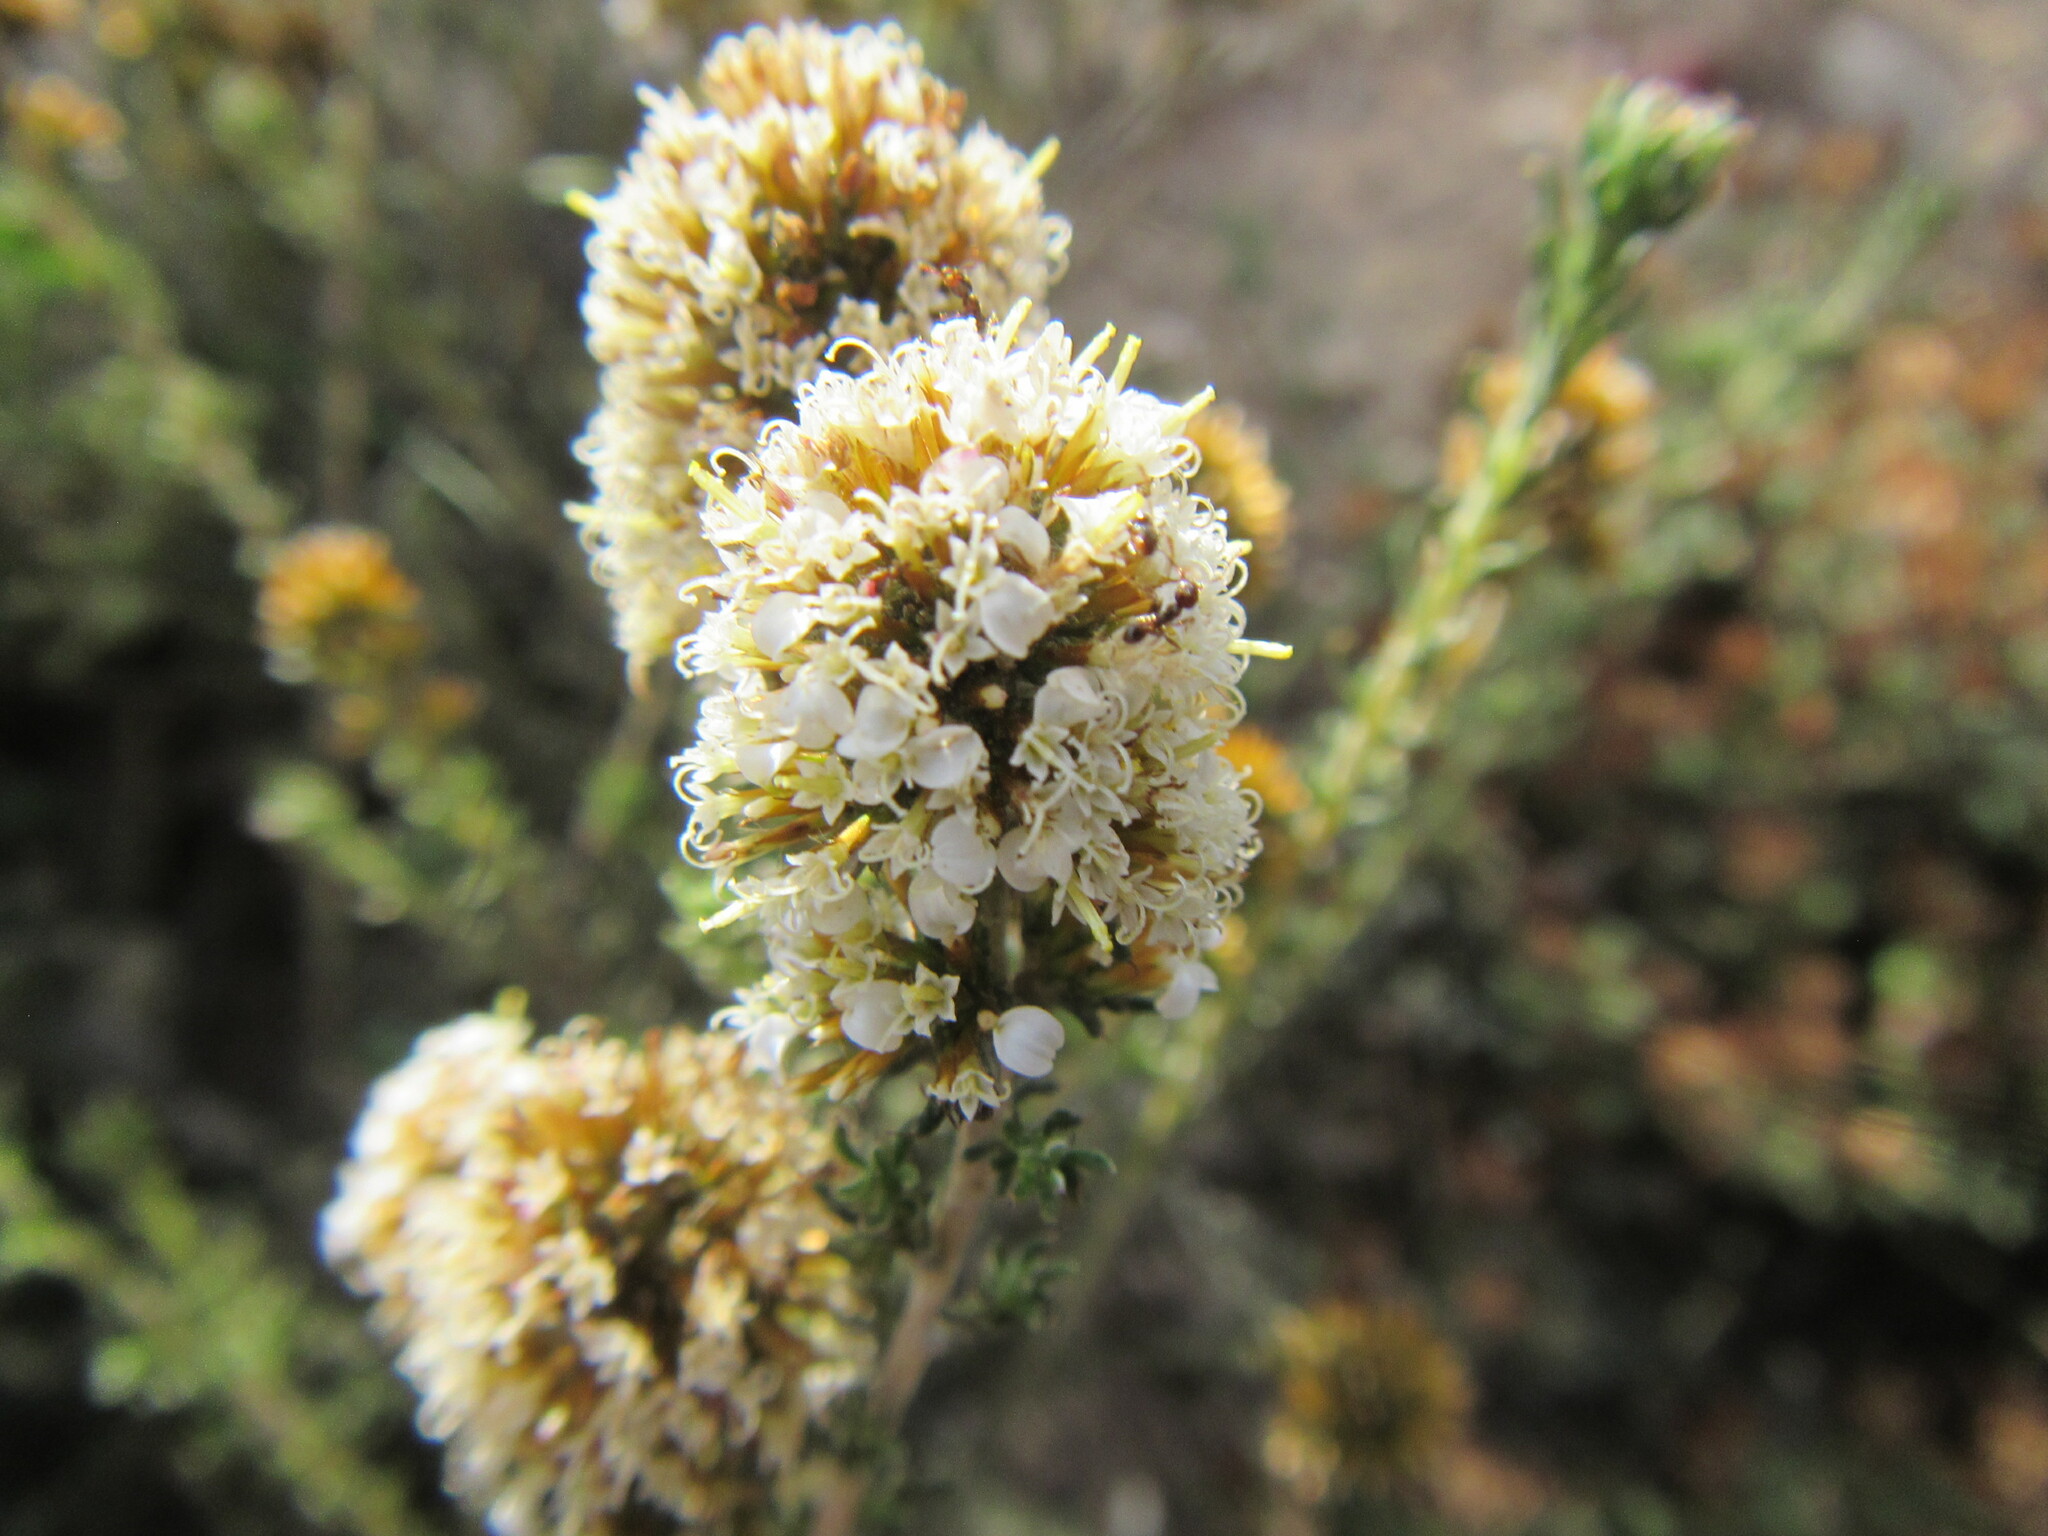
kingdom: Plantae
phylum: Tracheophyta
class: Magnoliopsida
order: Asterales
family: Asteraceae
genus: Disparago
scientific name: Disparago anomala
